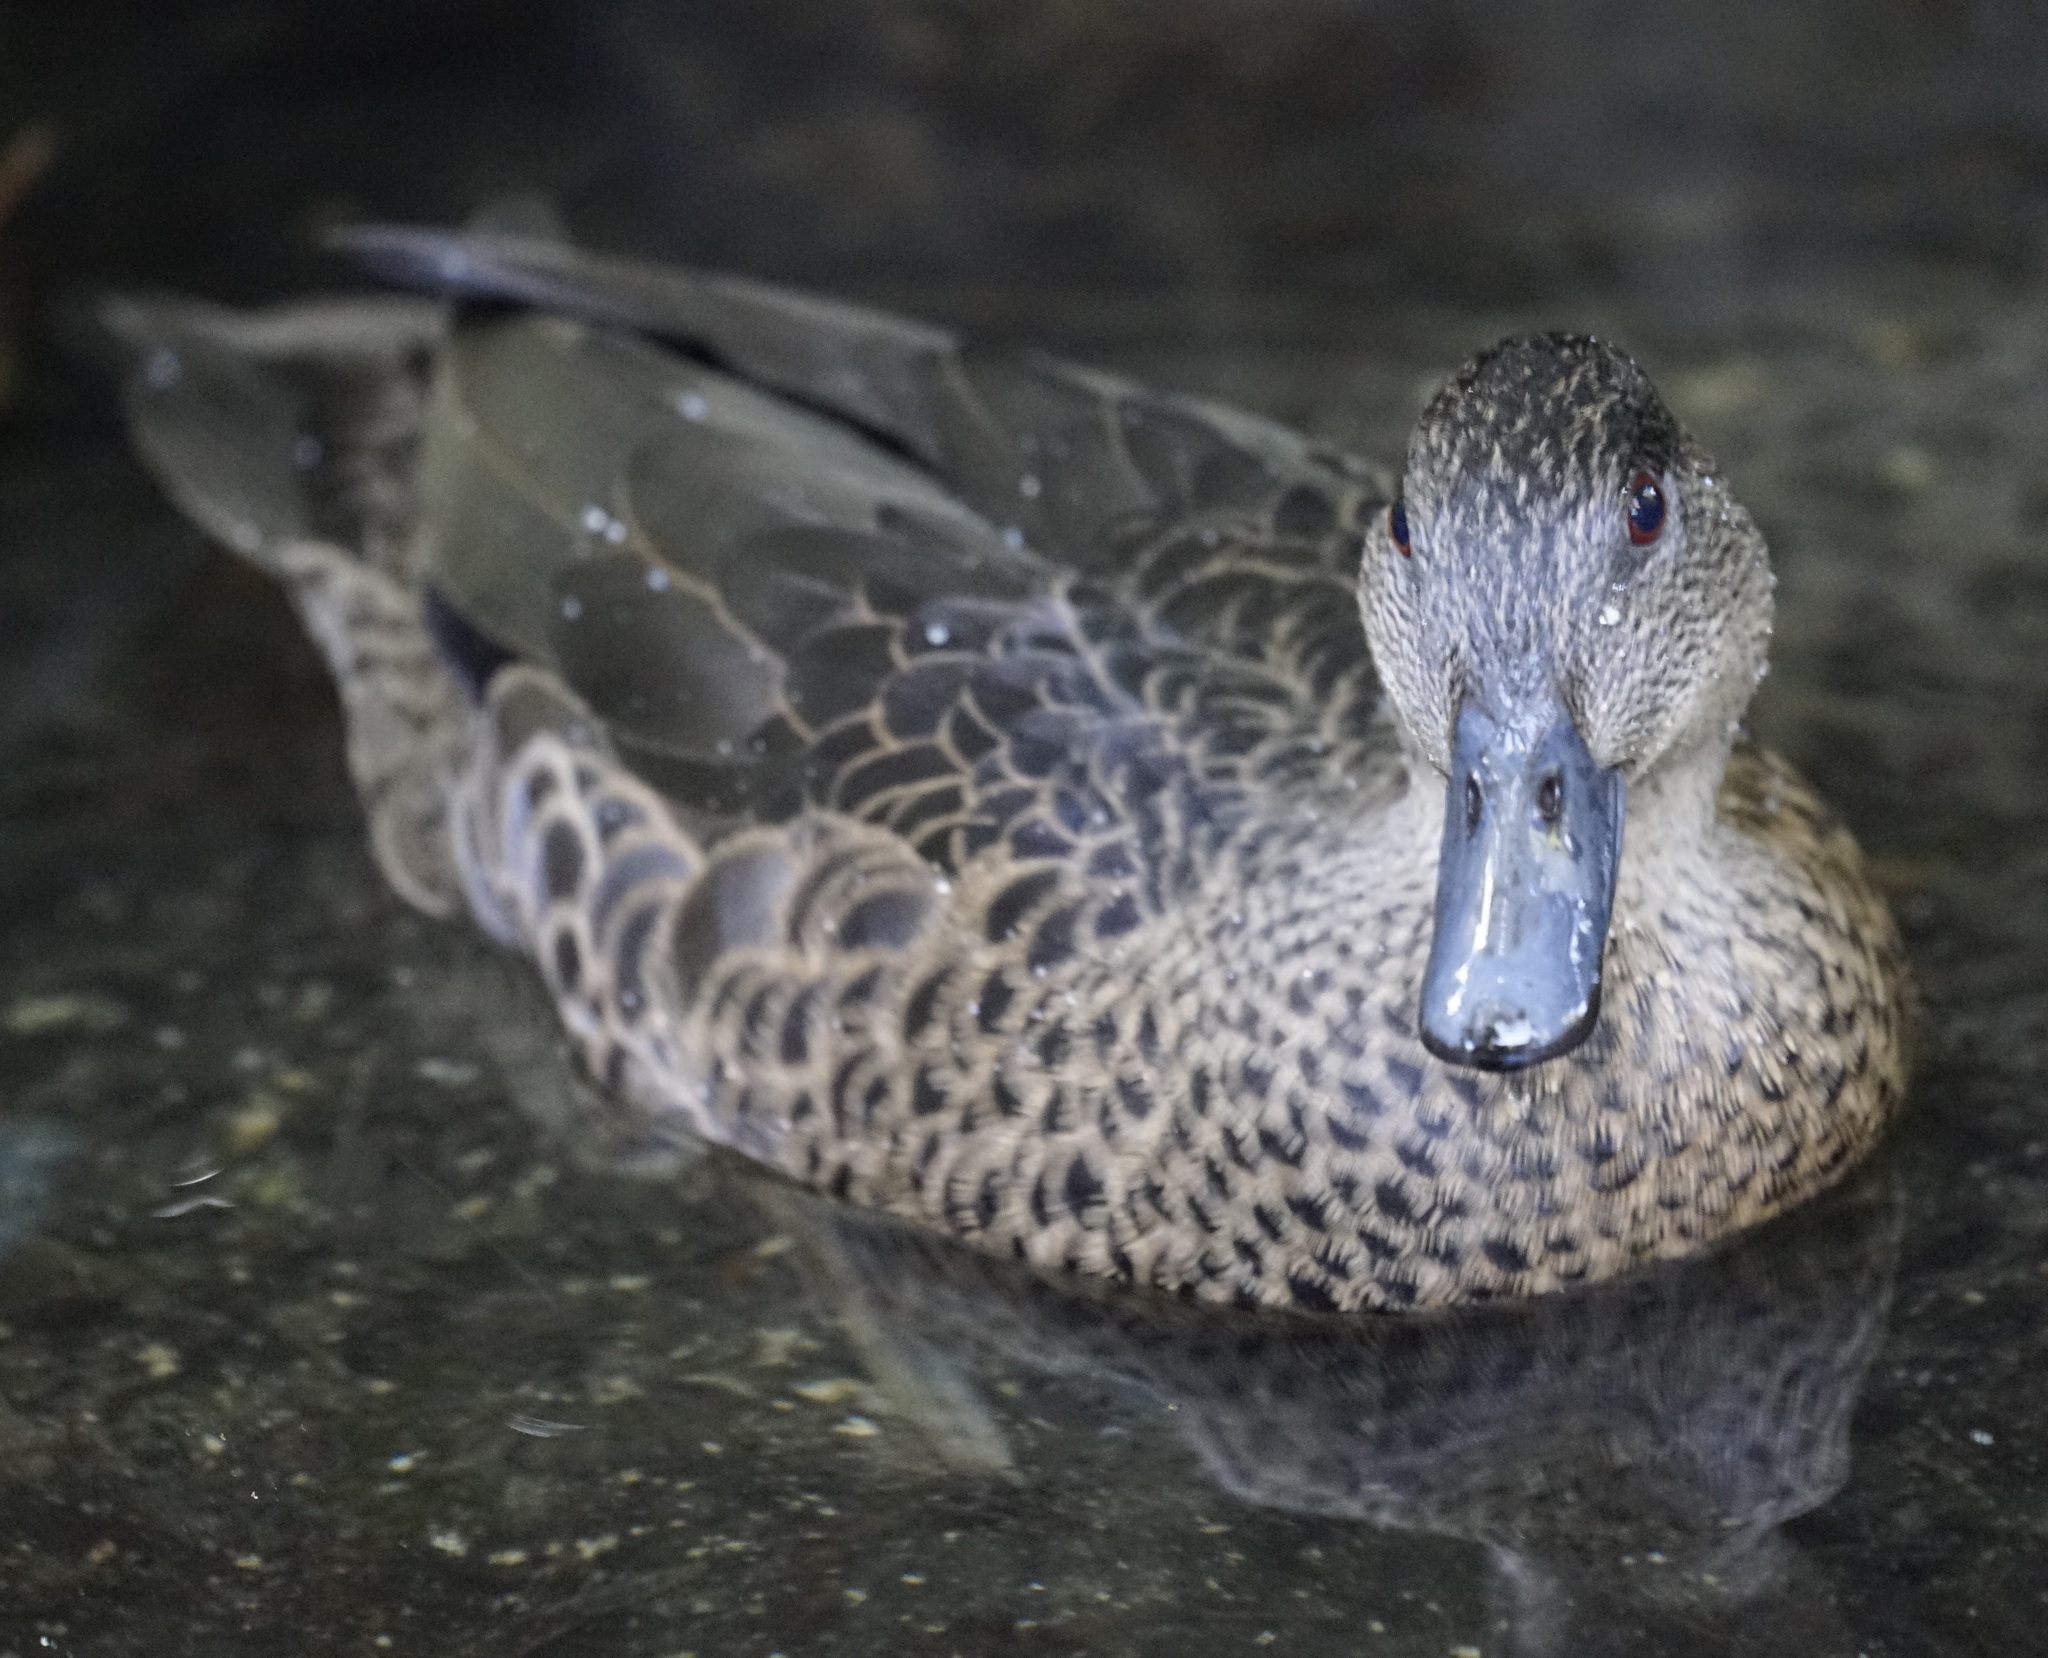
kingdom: Animalia
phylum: Chordata
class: Aves
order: Anseriformes
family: Anatidae
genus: Anas
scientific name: Anas gracilis
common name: Grey teal
